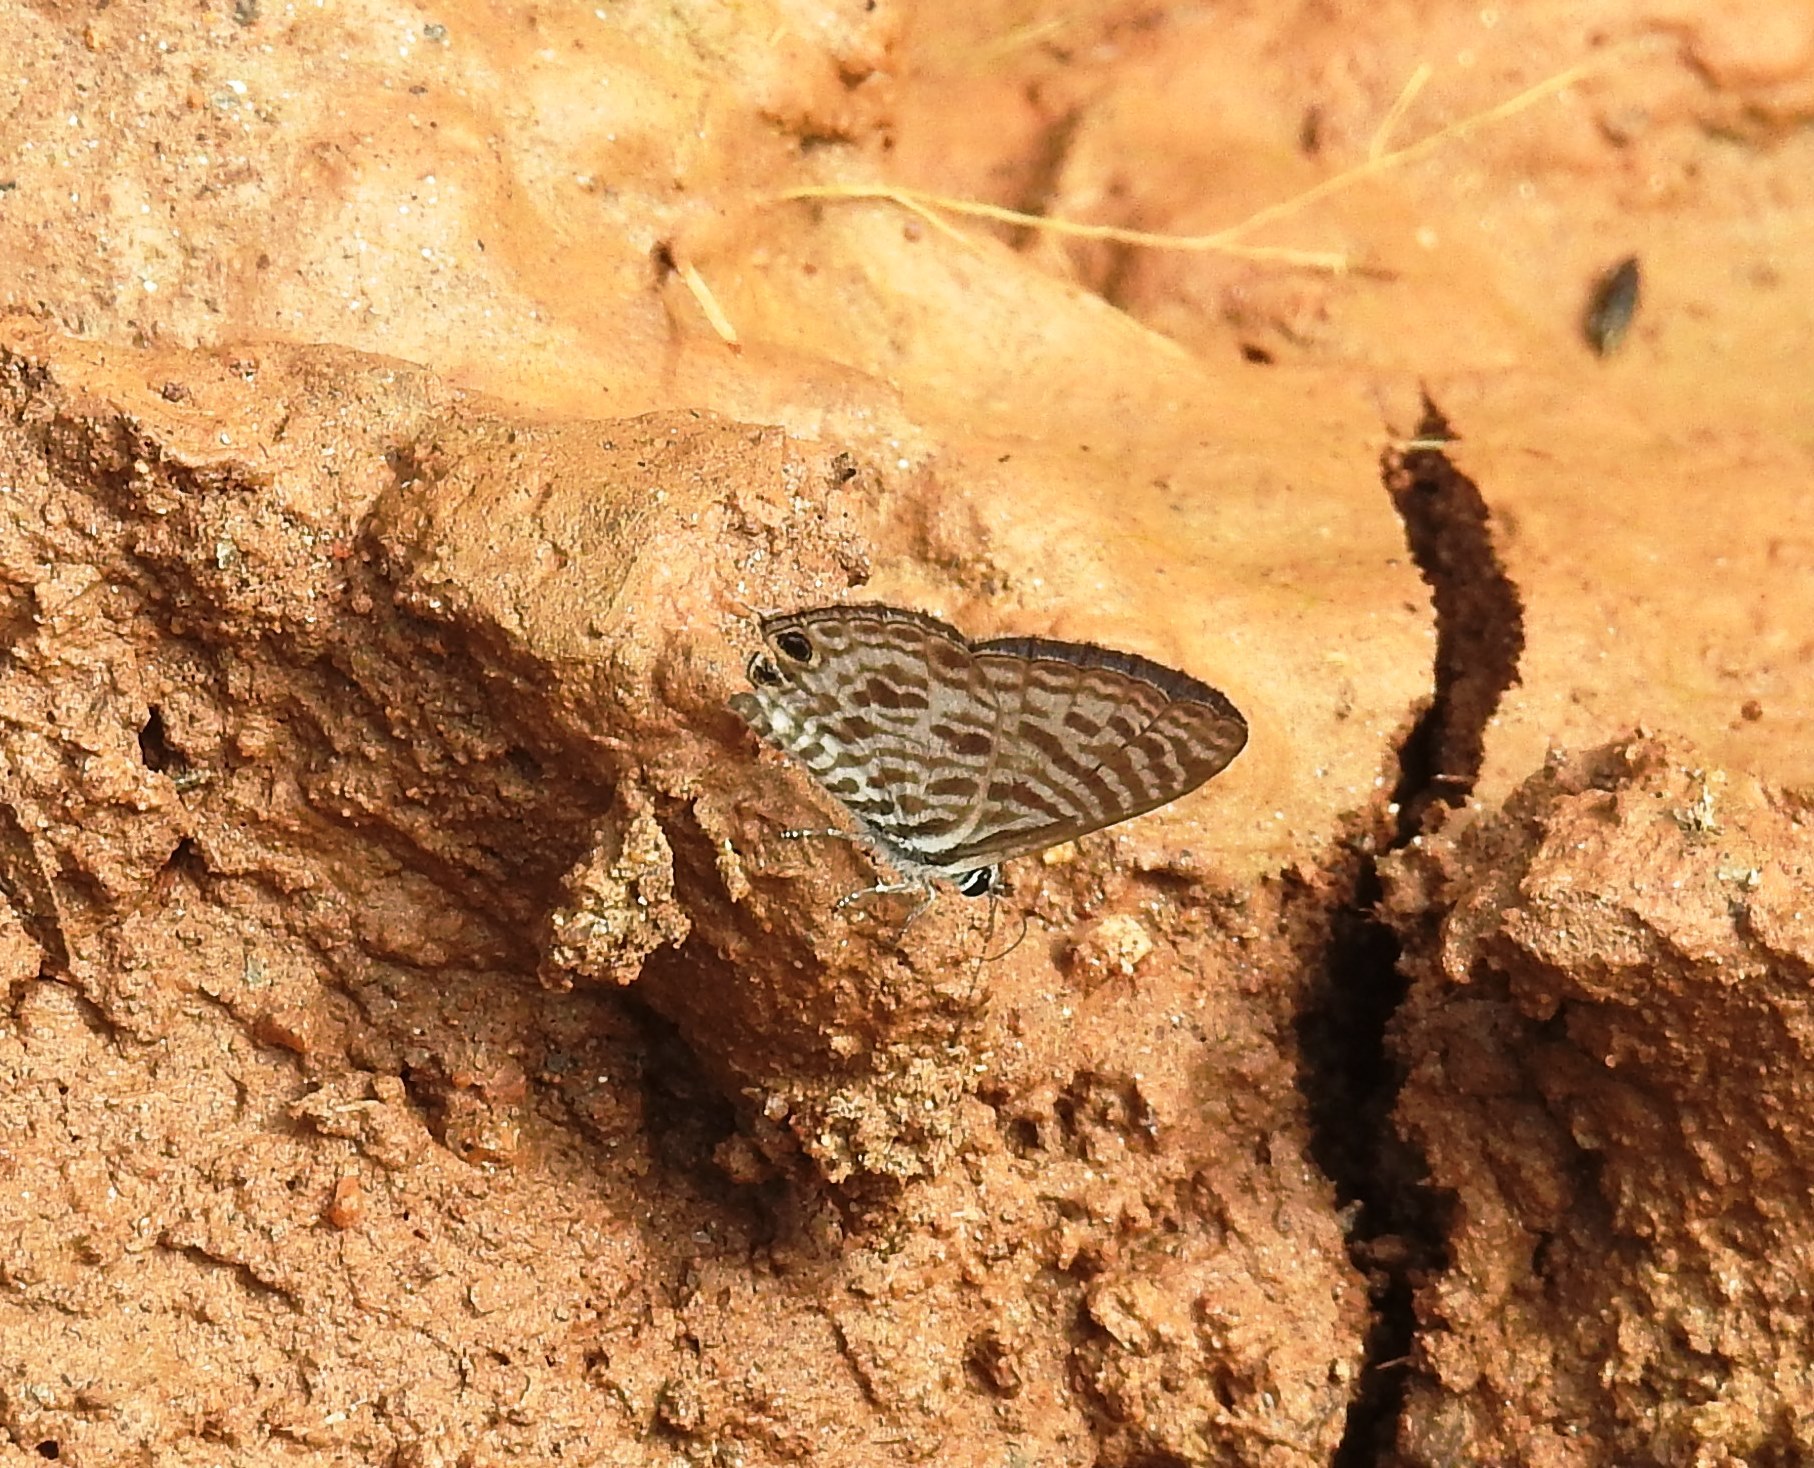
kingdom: Animalia
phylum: Arthropoda
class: Insecta
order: Lepidoptera
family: Lycaenidae
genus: Leptotes
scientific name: Leptotes plinius
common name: Zebra blue
